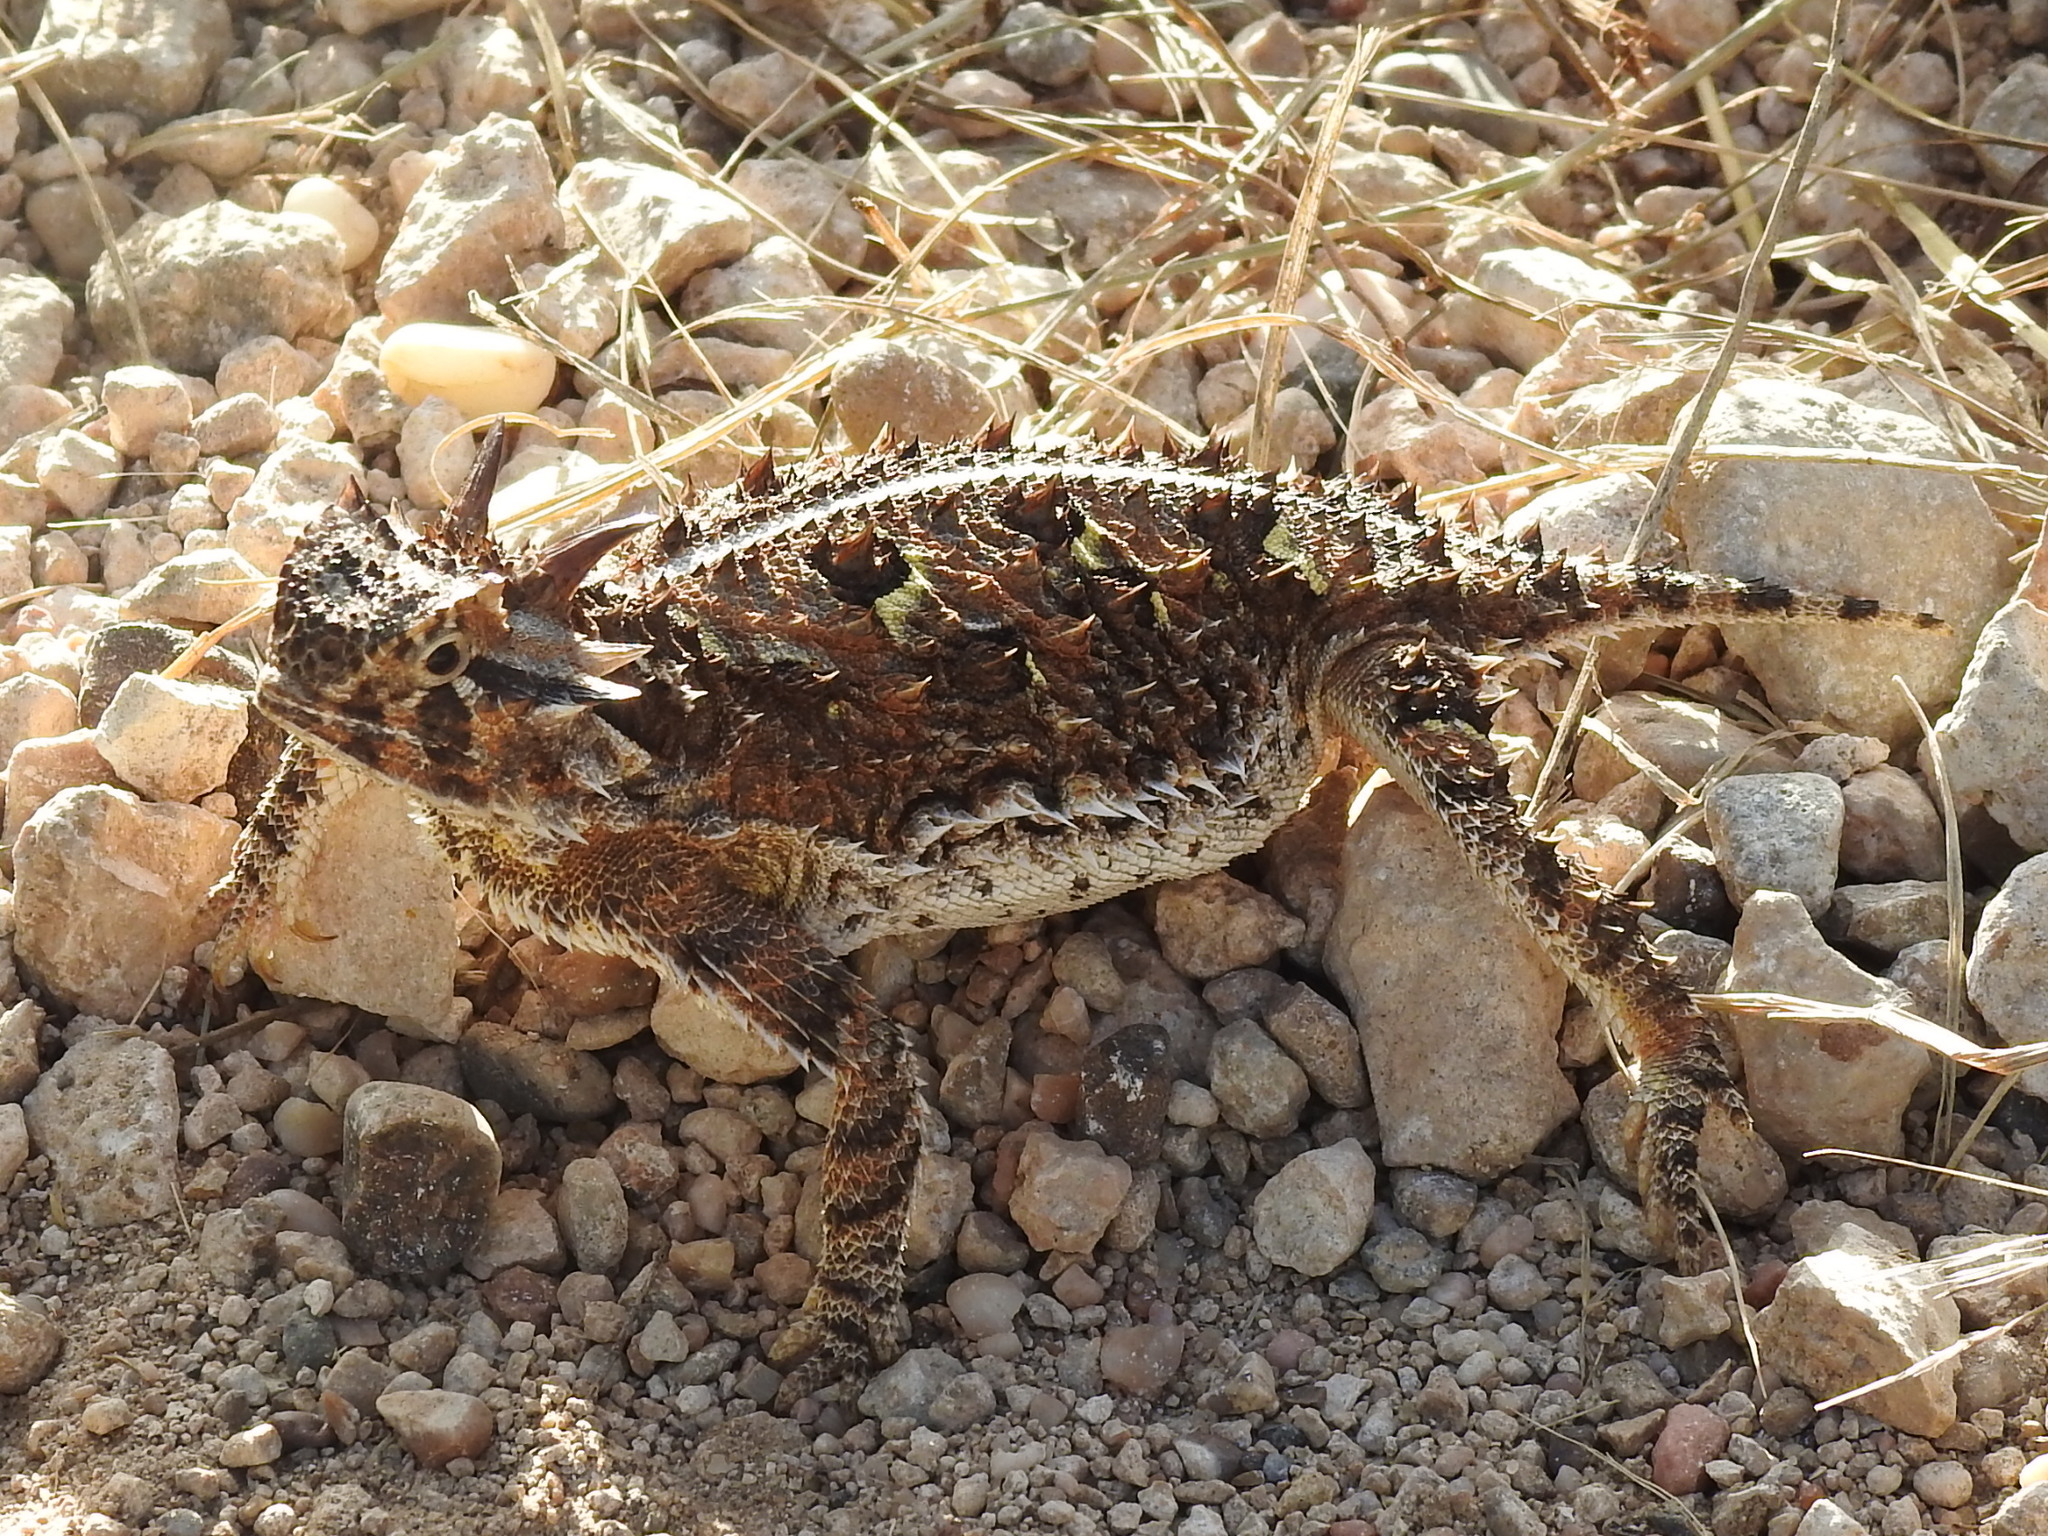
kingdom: Animalia
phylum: Chordata
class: Squamata
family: Phrynosomatidae
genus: Phrynosoma
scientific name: Phrynosoma cornutum
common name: Texas horned lizard
